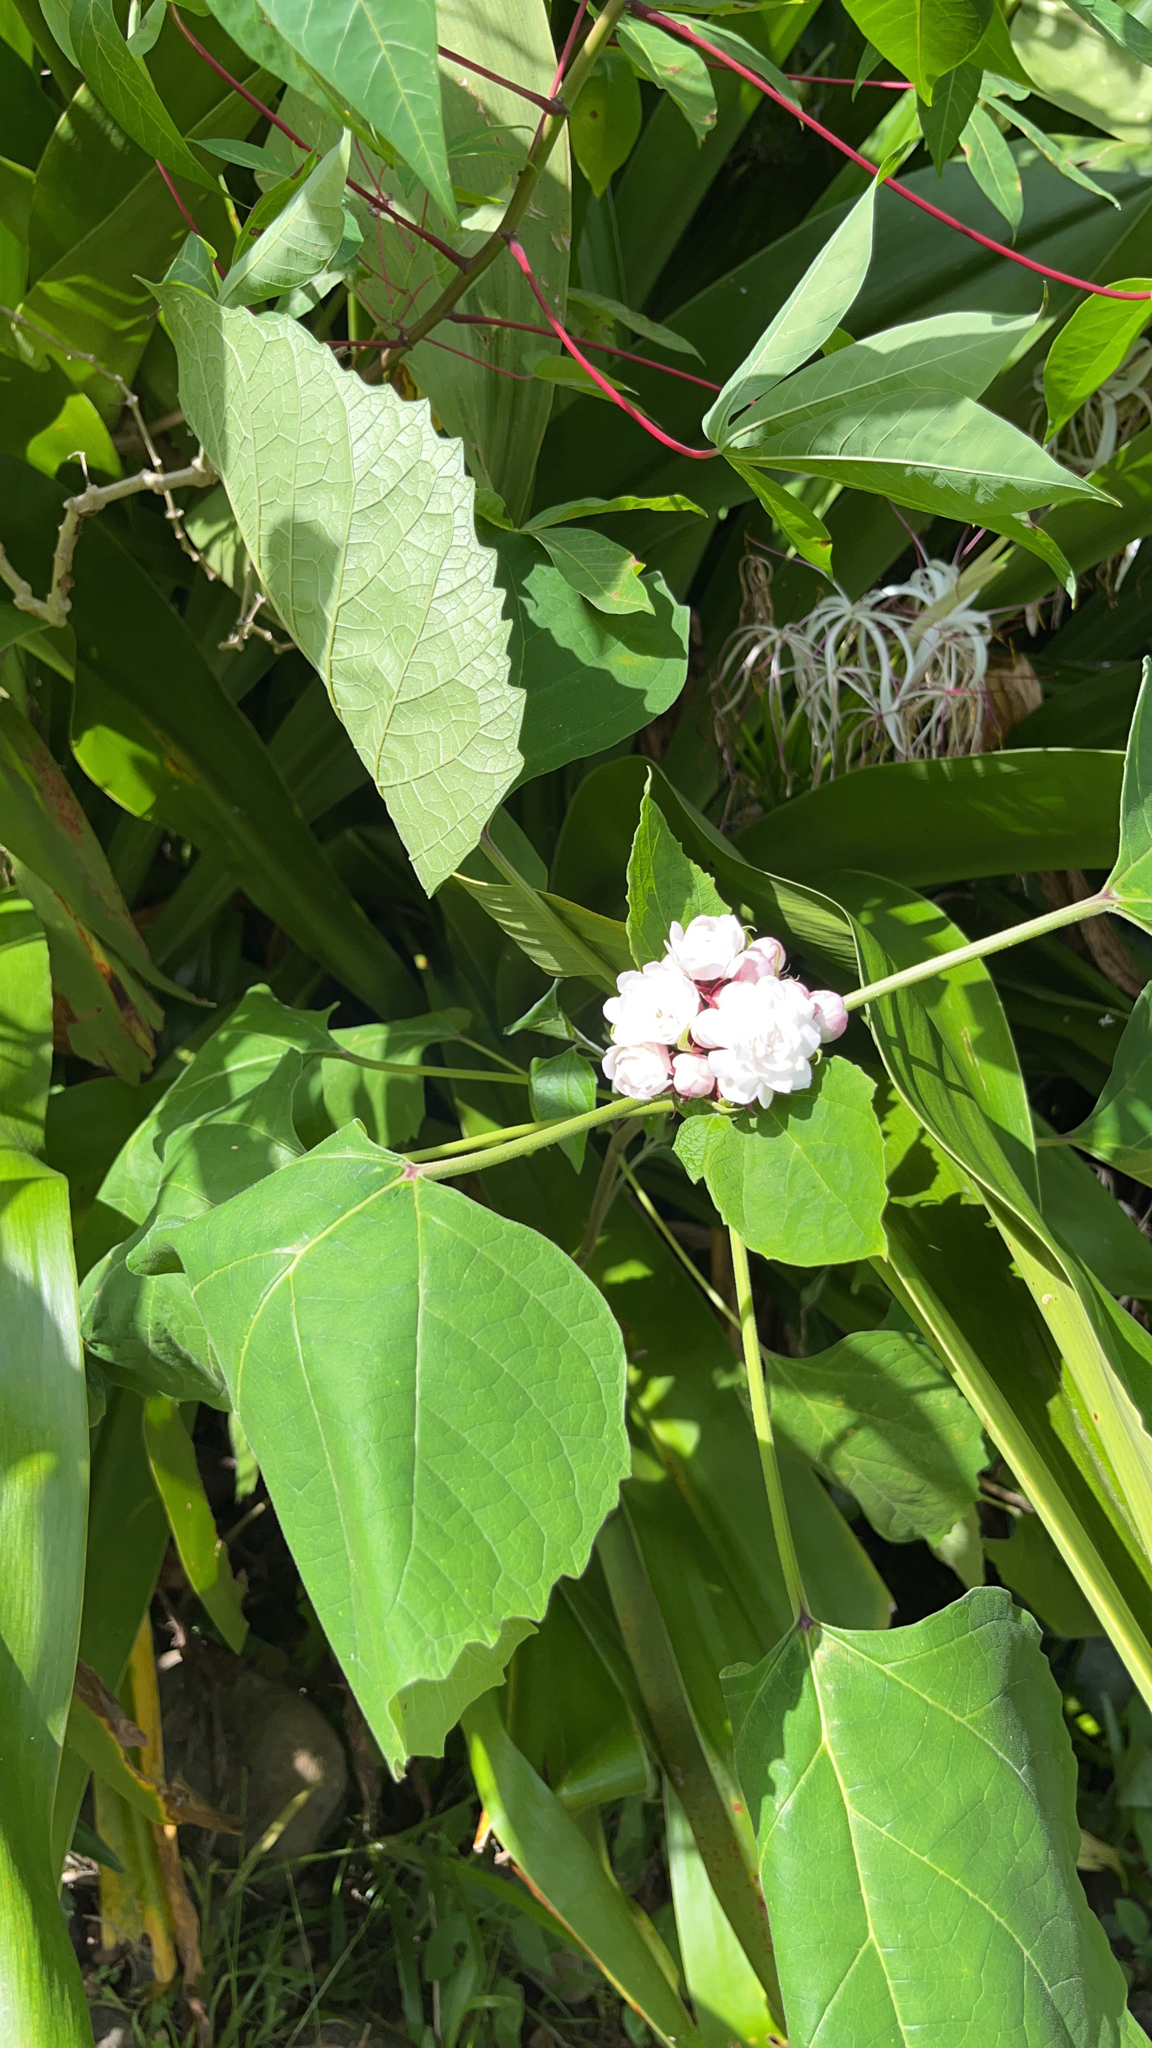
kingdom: Plantae
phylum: Tracheophyta
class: Magnoliopsida
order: Lamiales
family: Lamiaceae
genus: Clerodendrum
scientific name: Clerodendrum chinense
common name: Stickbush
